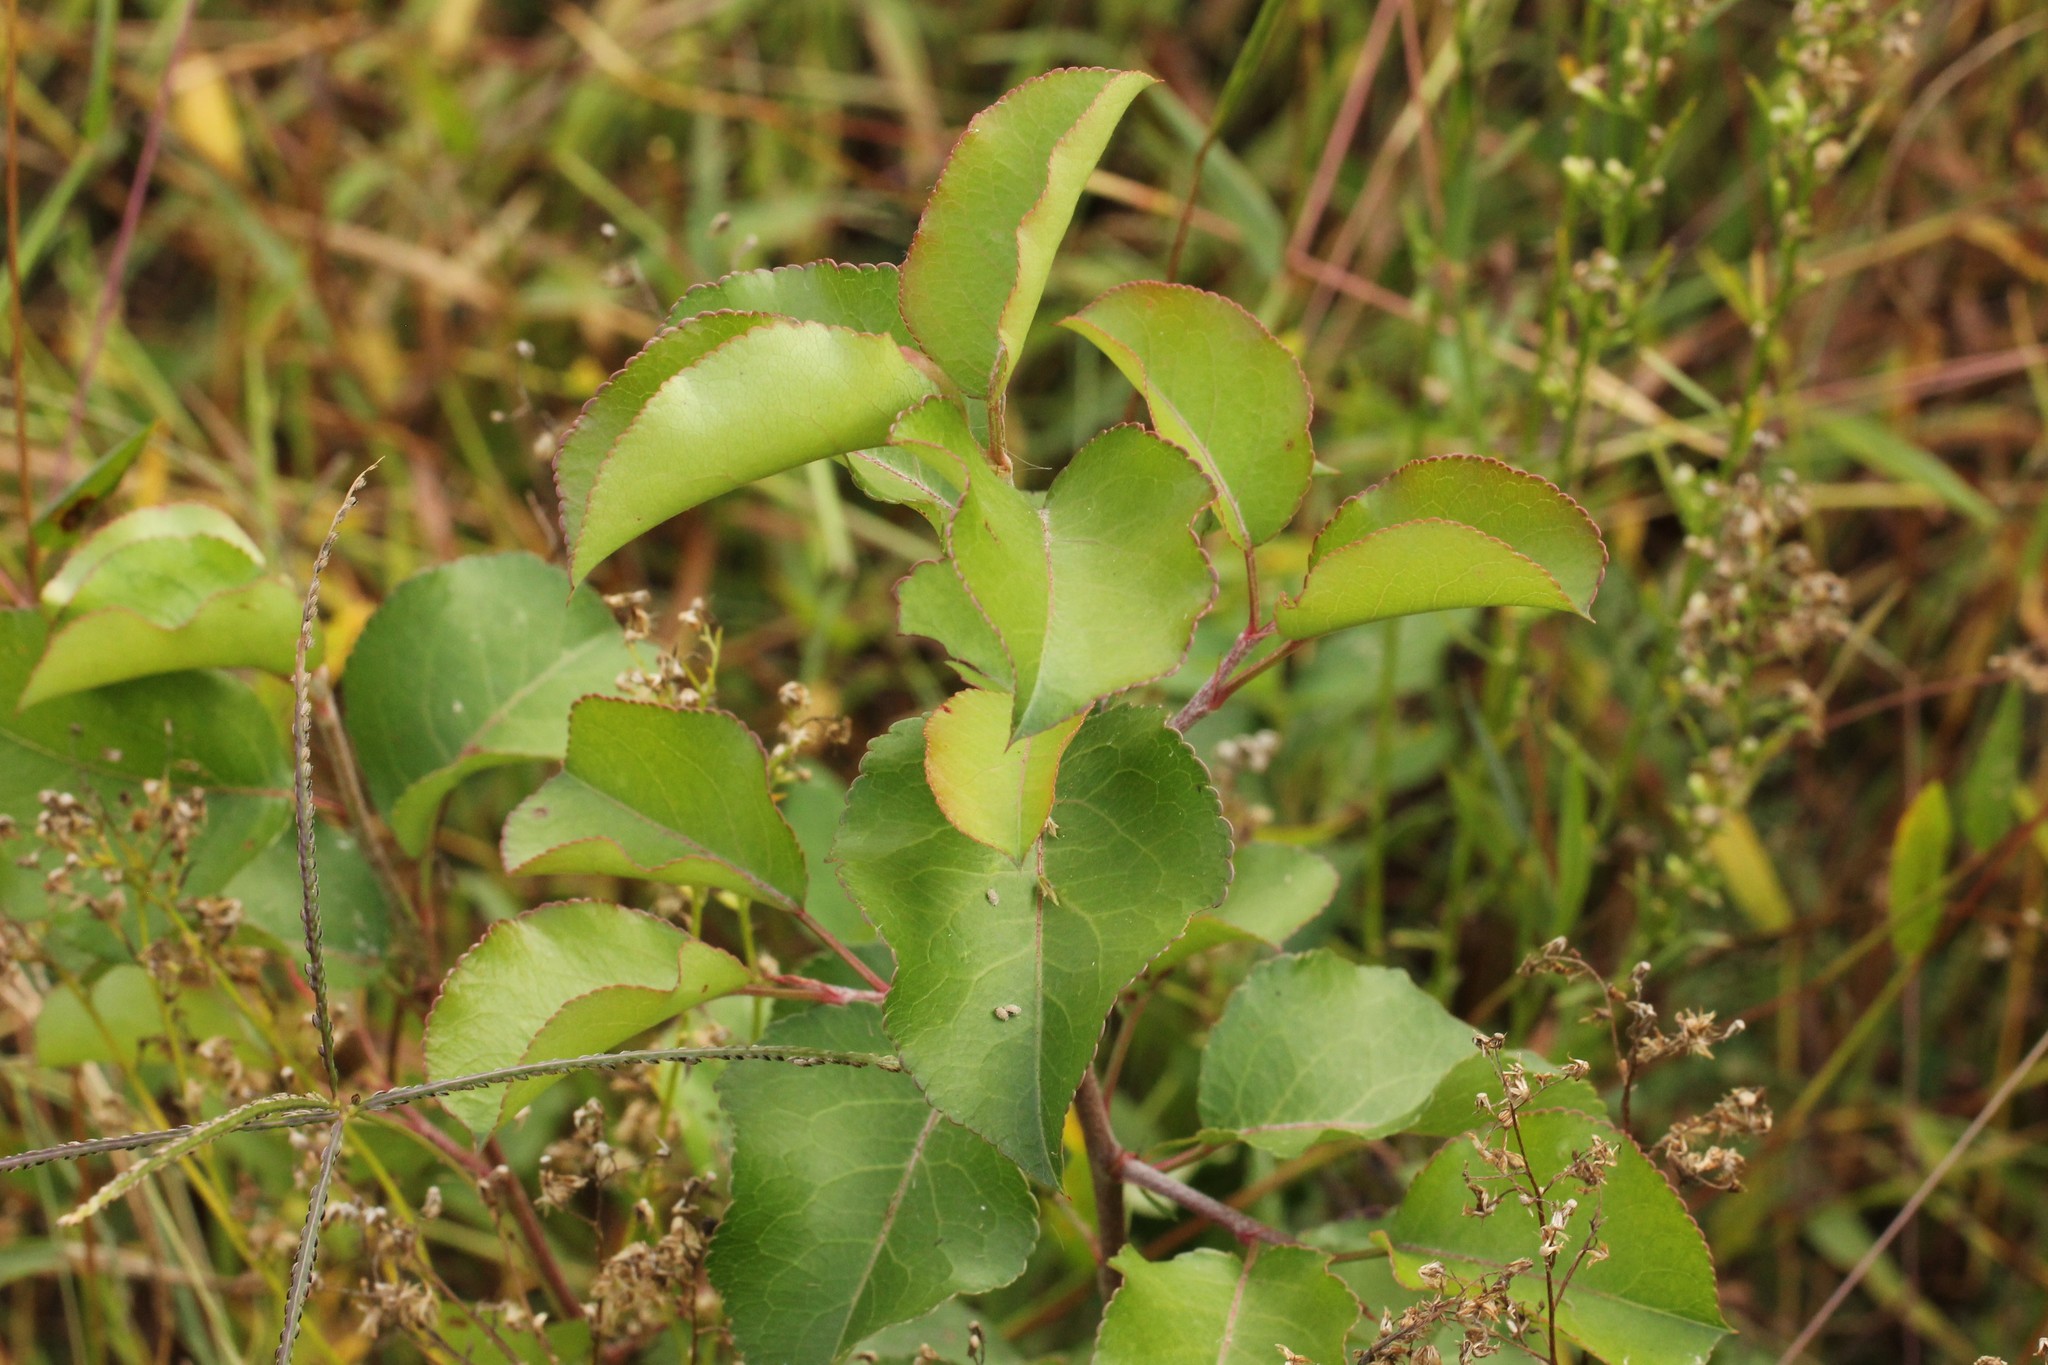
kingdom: Plantae
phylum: Tracheophyta
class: Magnoliopsida
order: Rosales
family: Rosaceae
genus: Pyrus
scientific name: Pyrus calleryana
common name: Callery pear
